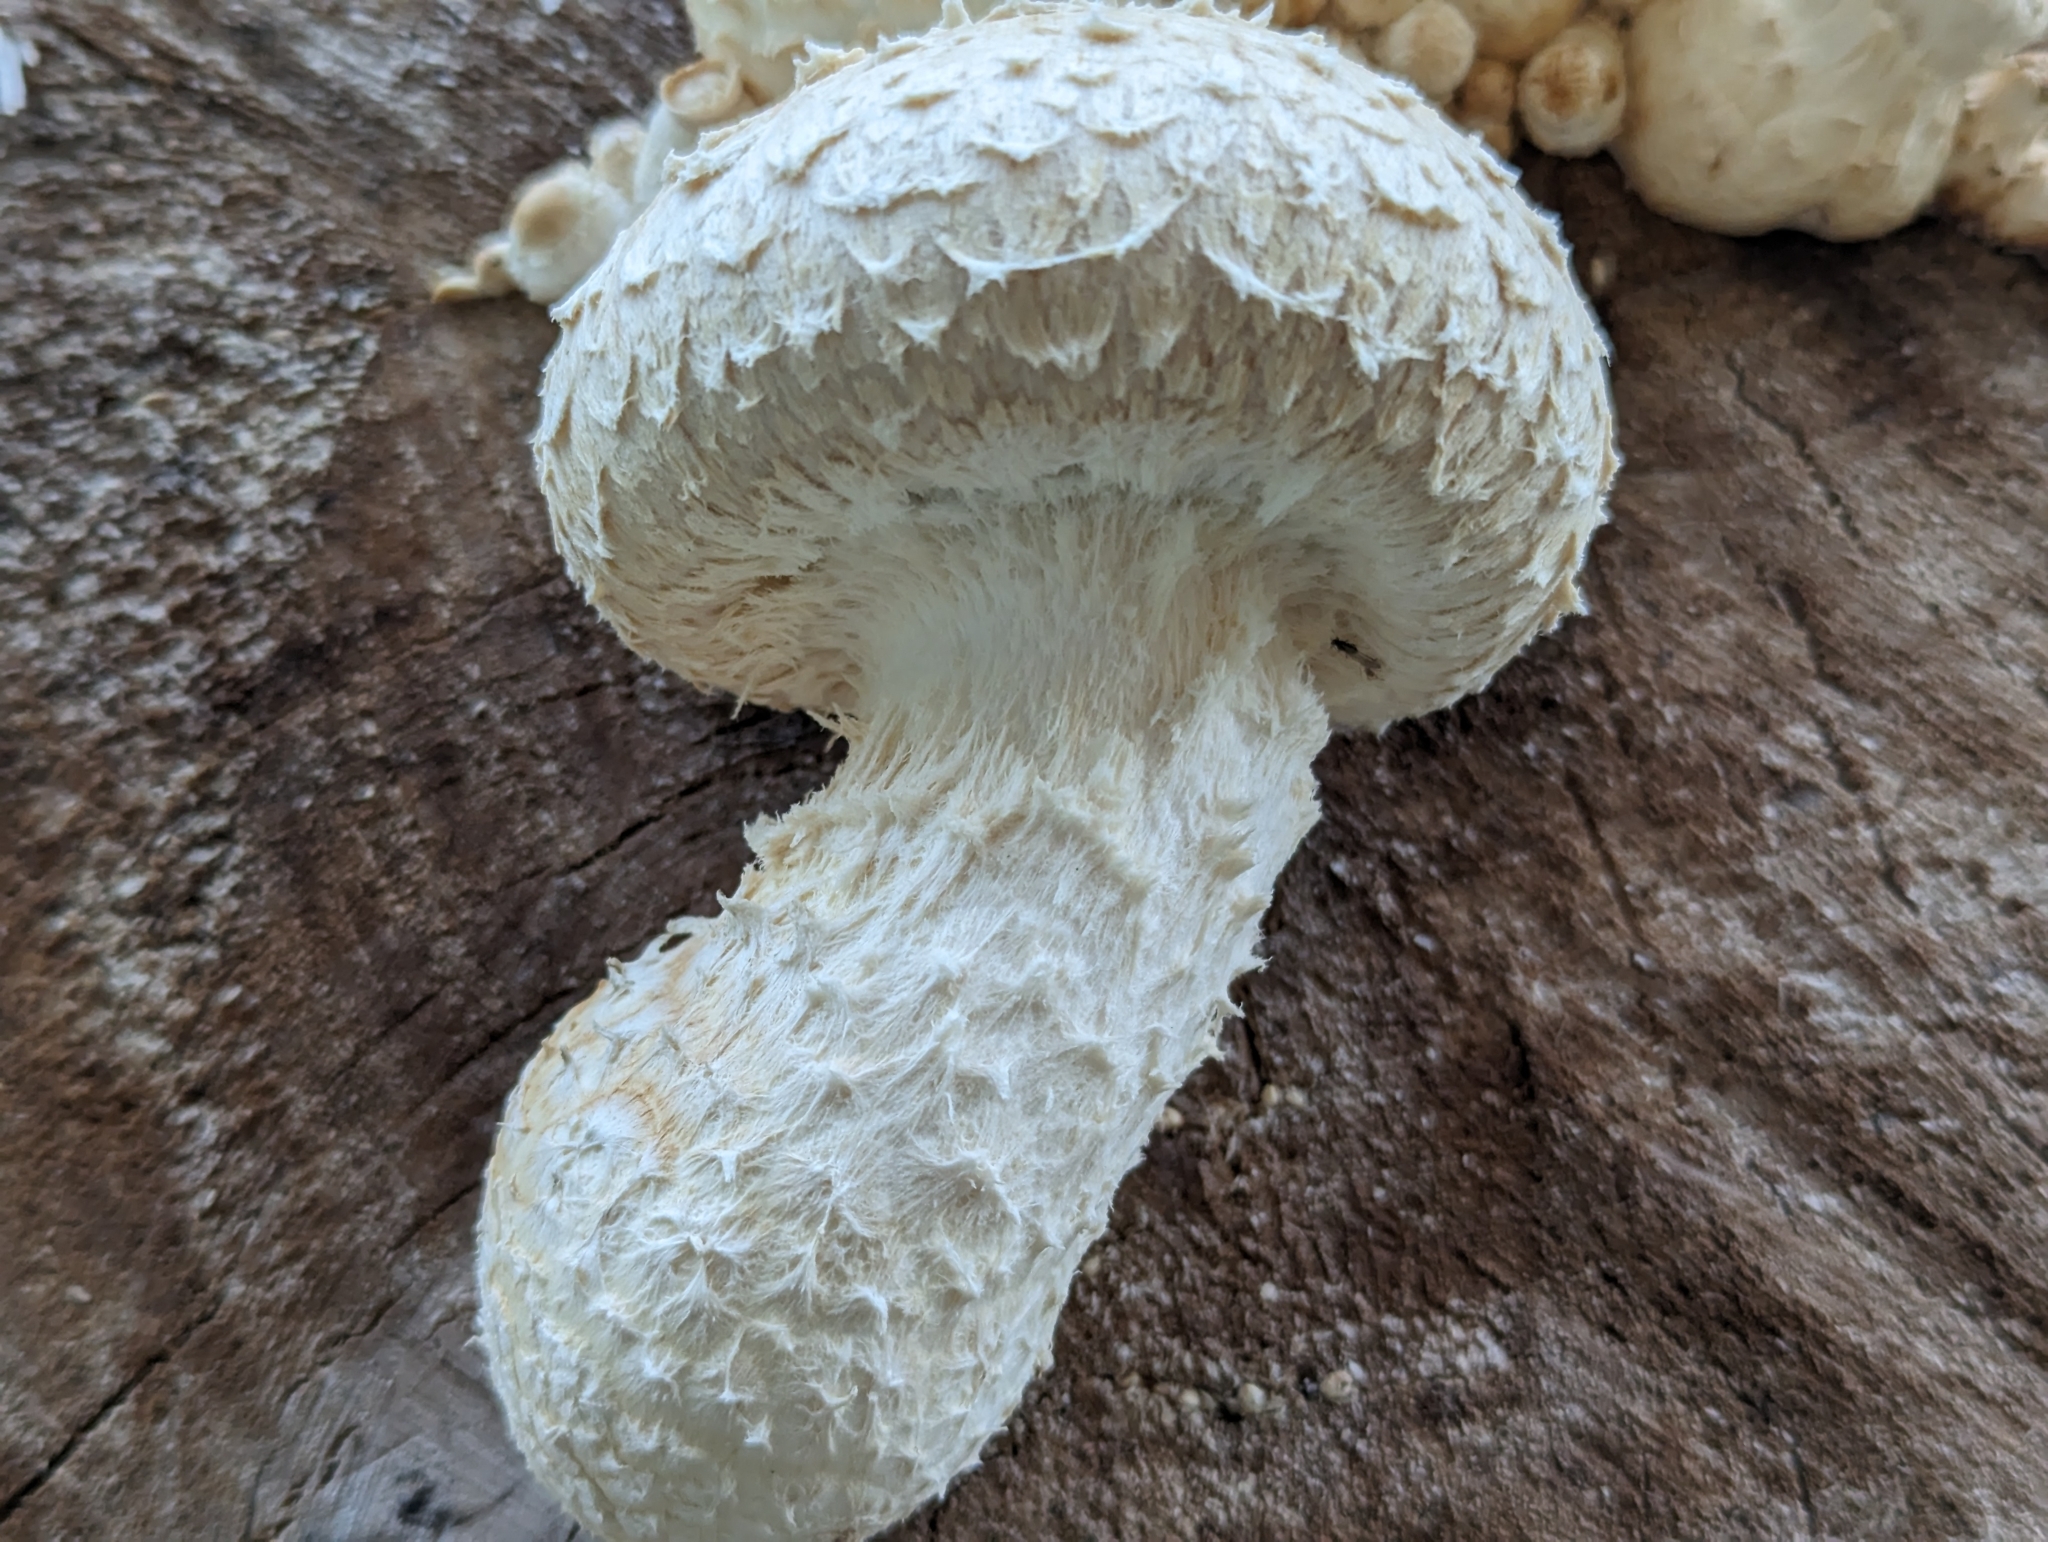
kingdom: Fungi
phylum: Basidiomycota
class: Agaricomycetes
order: Agaricales
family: Strophariaceae
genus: Pholiota
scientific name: Pholiota populnea
